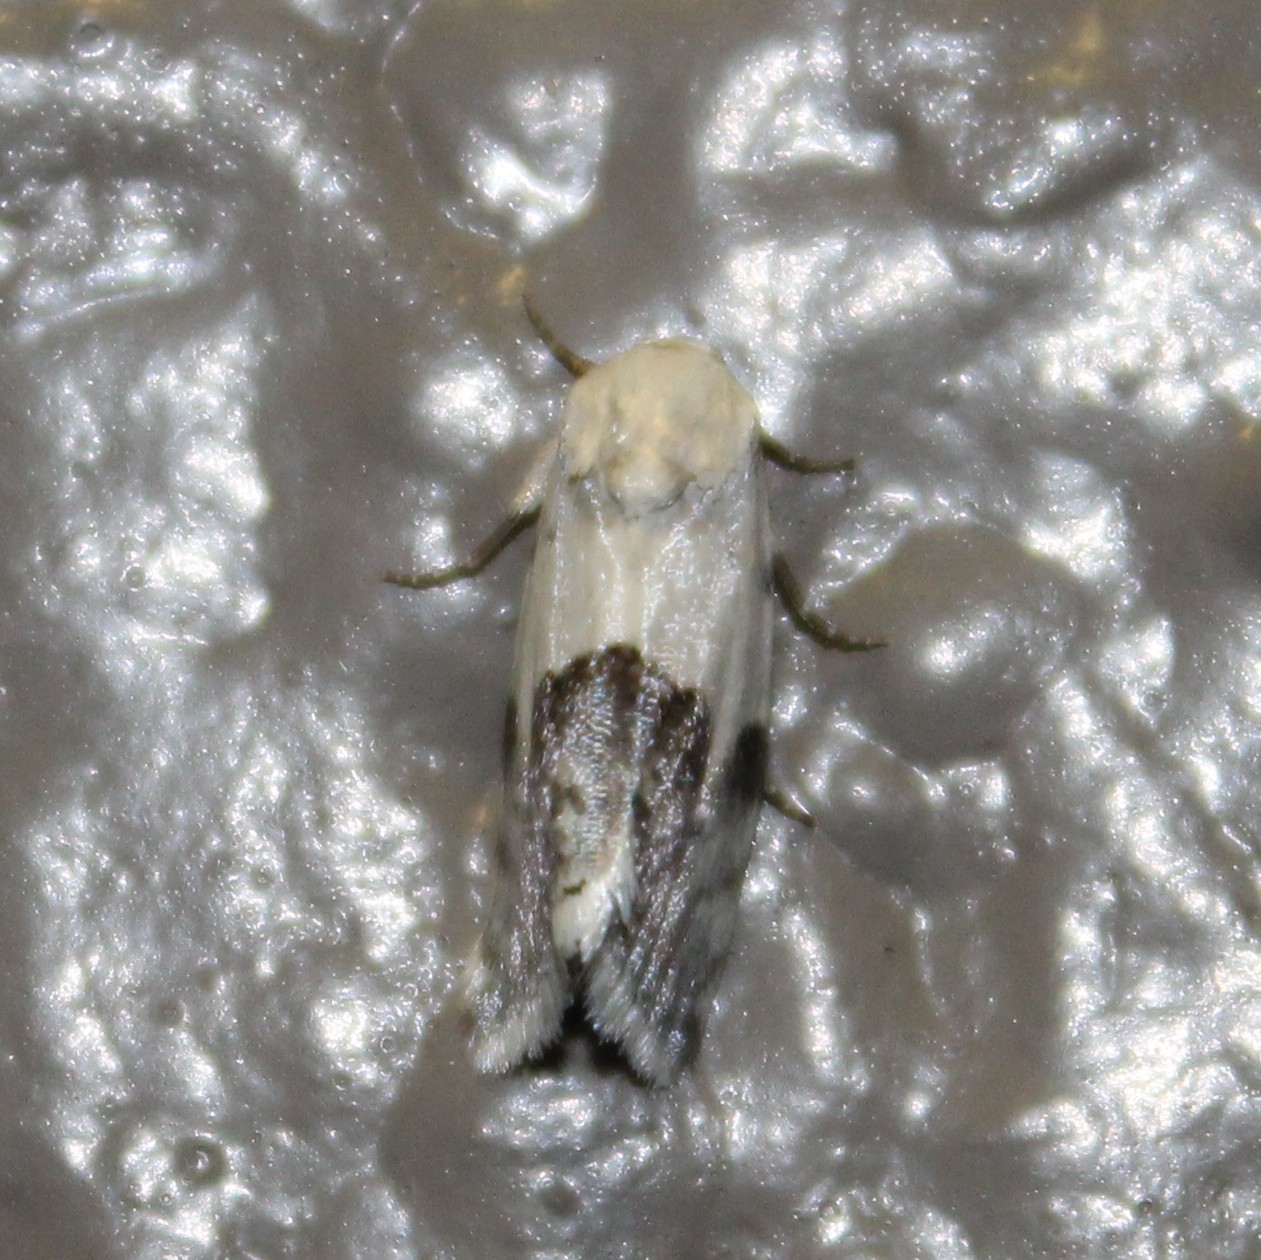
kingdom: Animalia
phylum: Arthropoda
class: Insecta
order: Lepidoptera
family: Noctuidae
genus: Ponometia
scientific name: Ponometia elegantula
